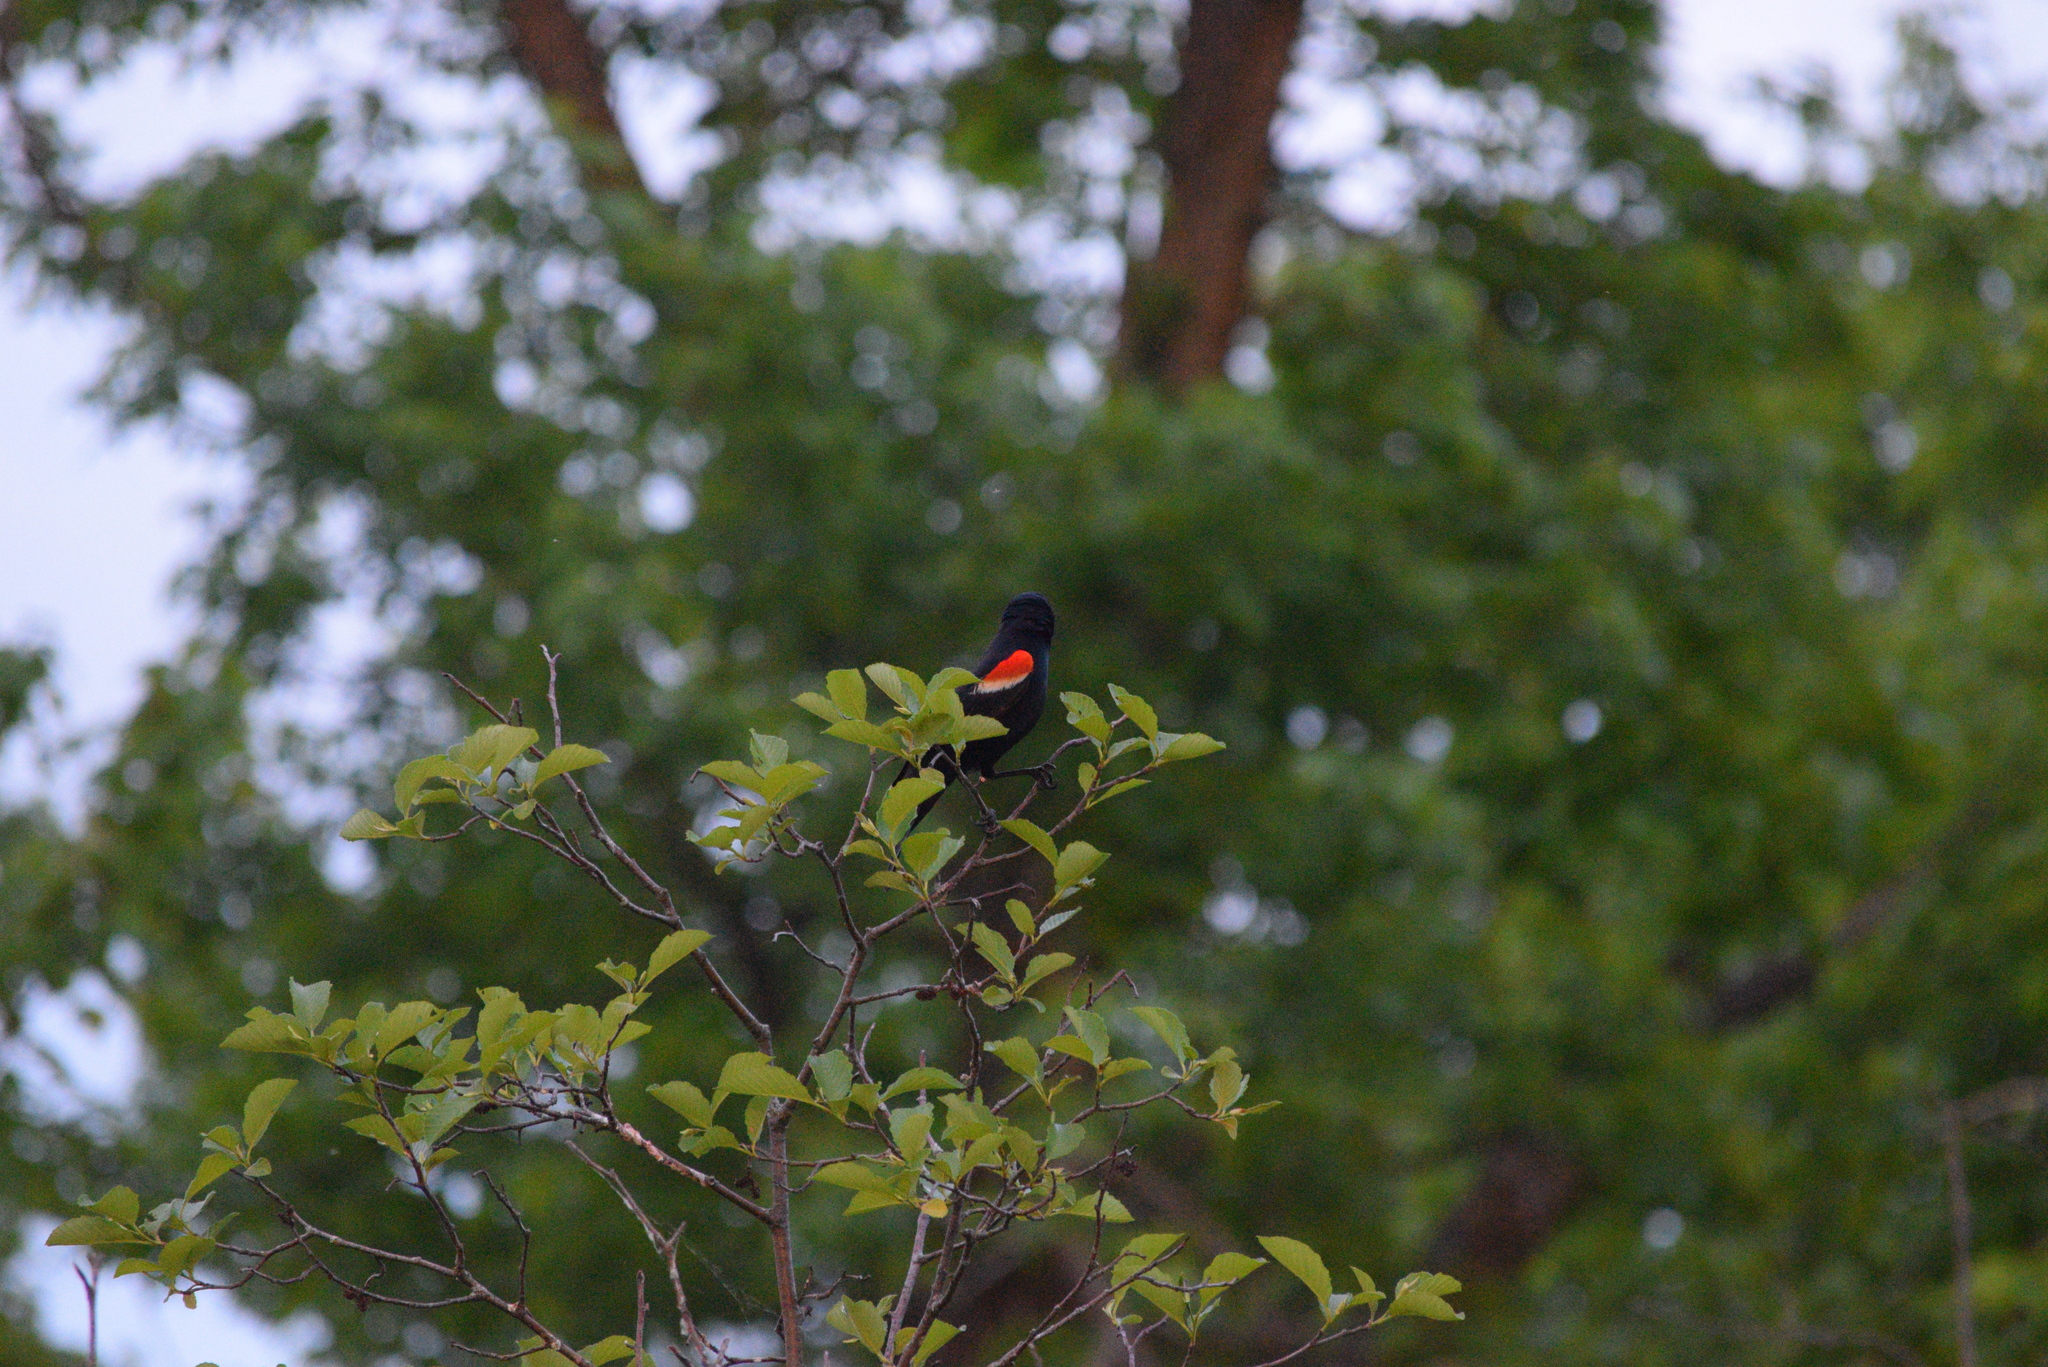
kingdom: Animalia
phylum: Chordata
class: Aves
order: Passeriformes
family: Icteridae
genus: Agelaius
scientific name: Agelaius phoeniceus
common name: Red-winged blackbird
